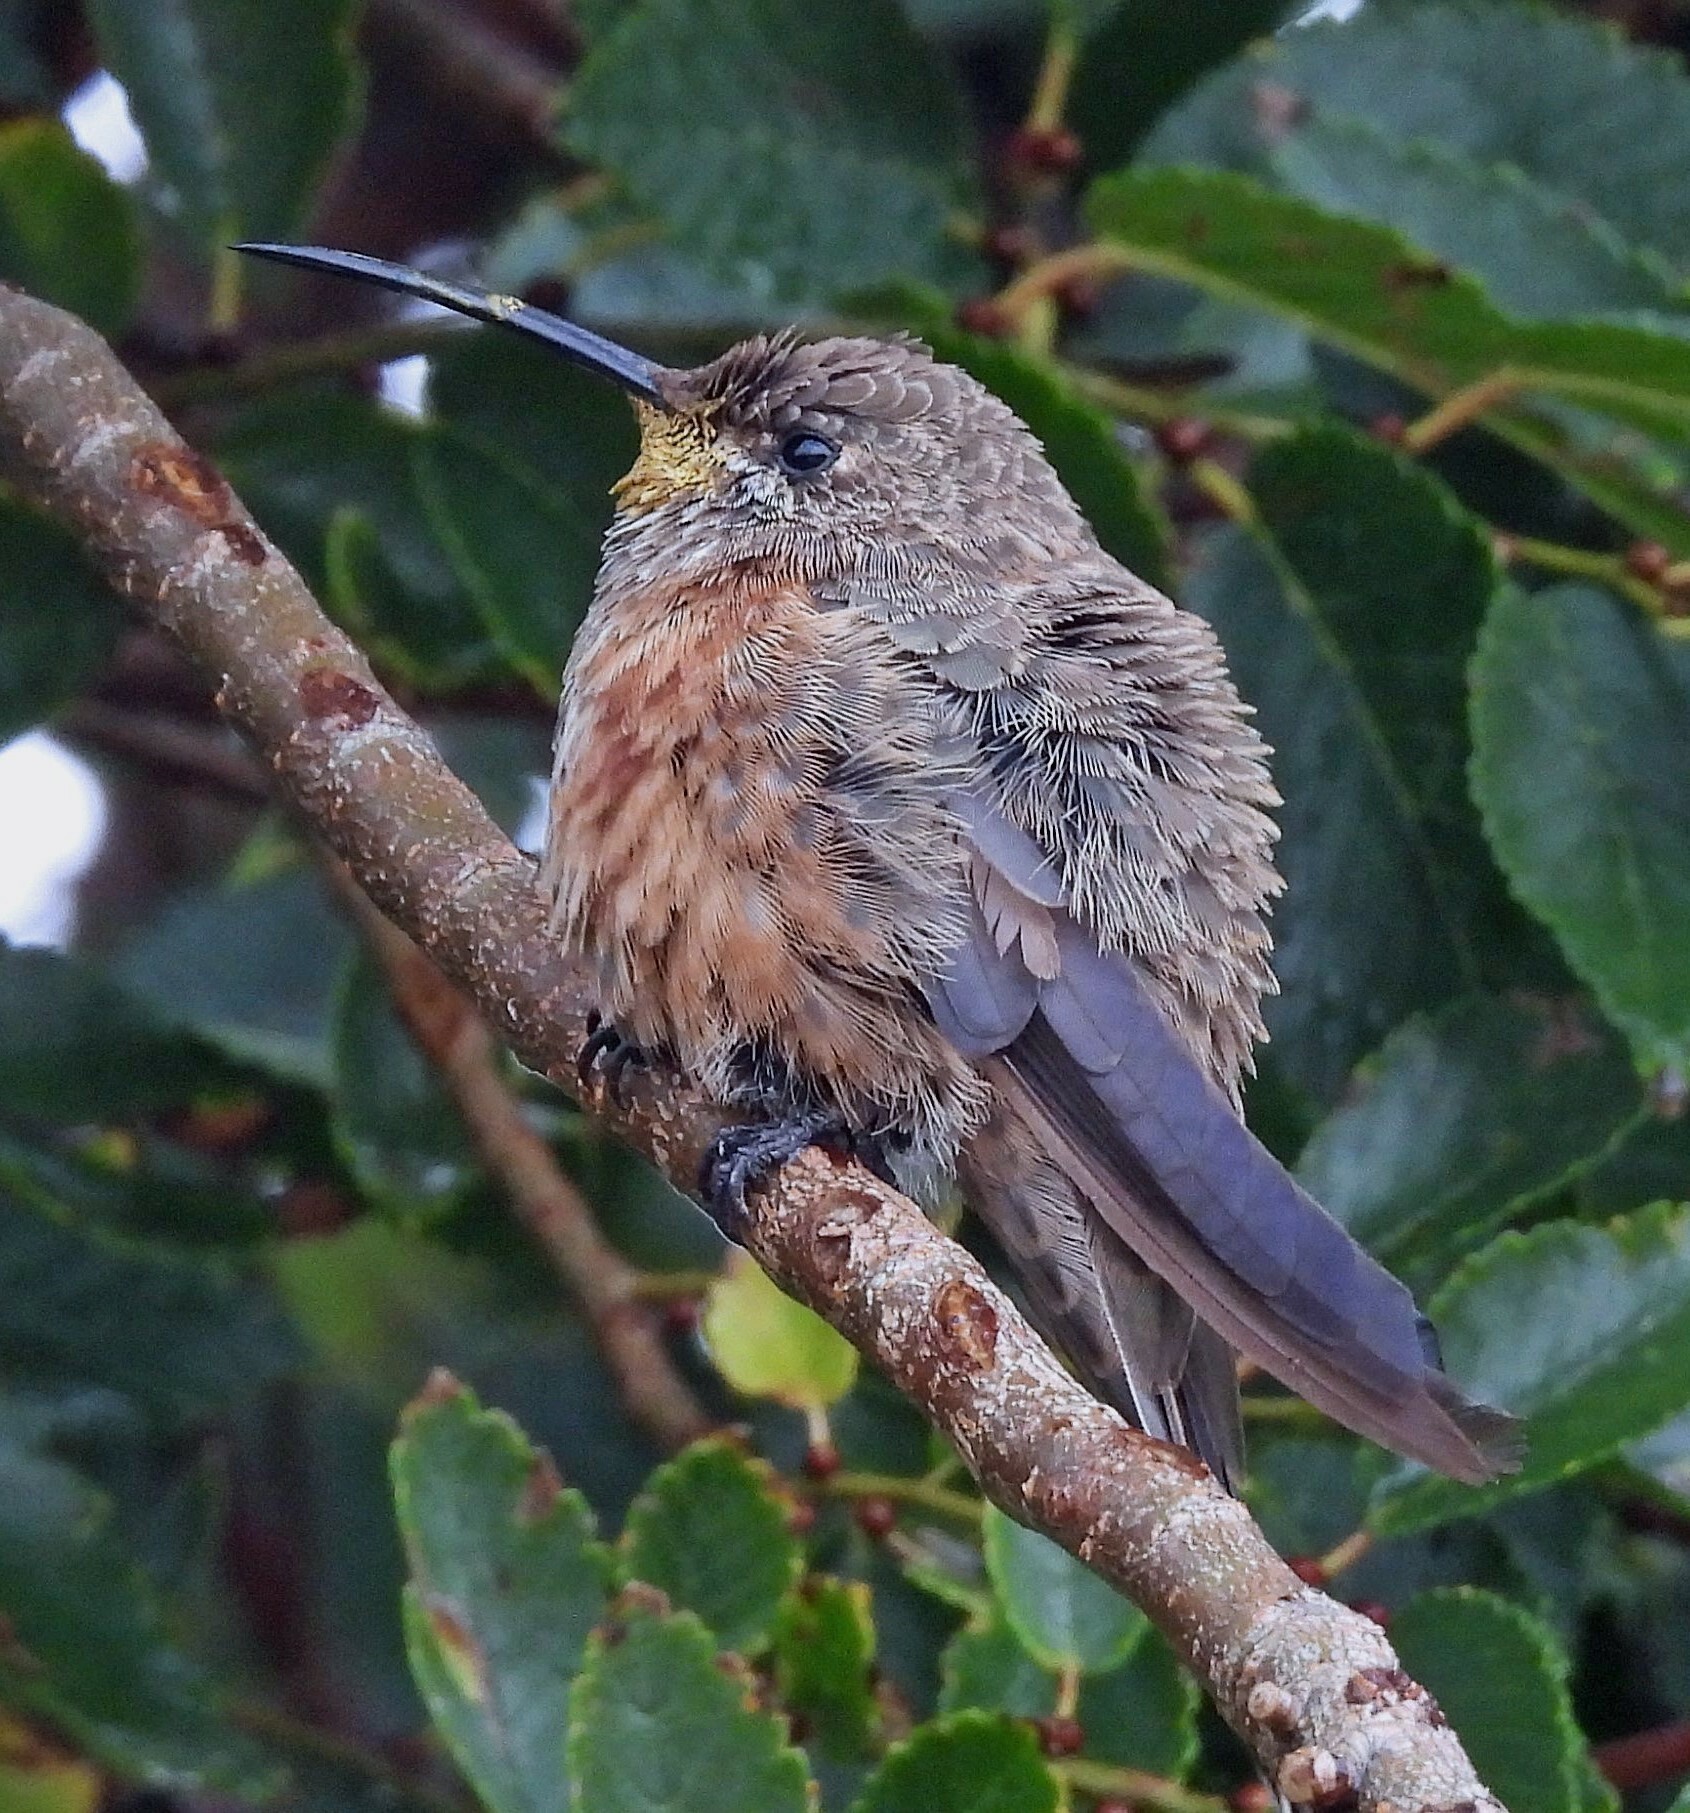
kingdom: Animalia
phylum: Chordata
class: Aves
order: Apodiformes
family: Trochilidae
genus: Oreotrochilus
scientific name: Oreotrochilus adela
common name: Wedge-tailed hillstar
